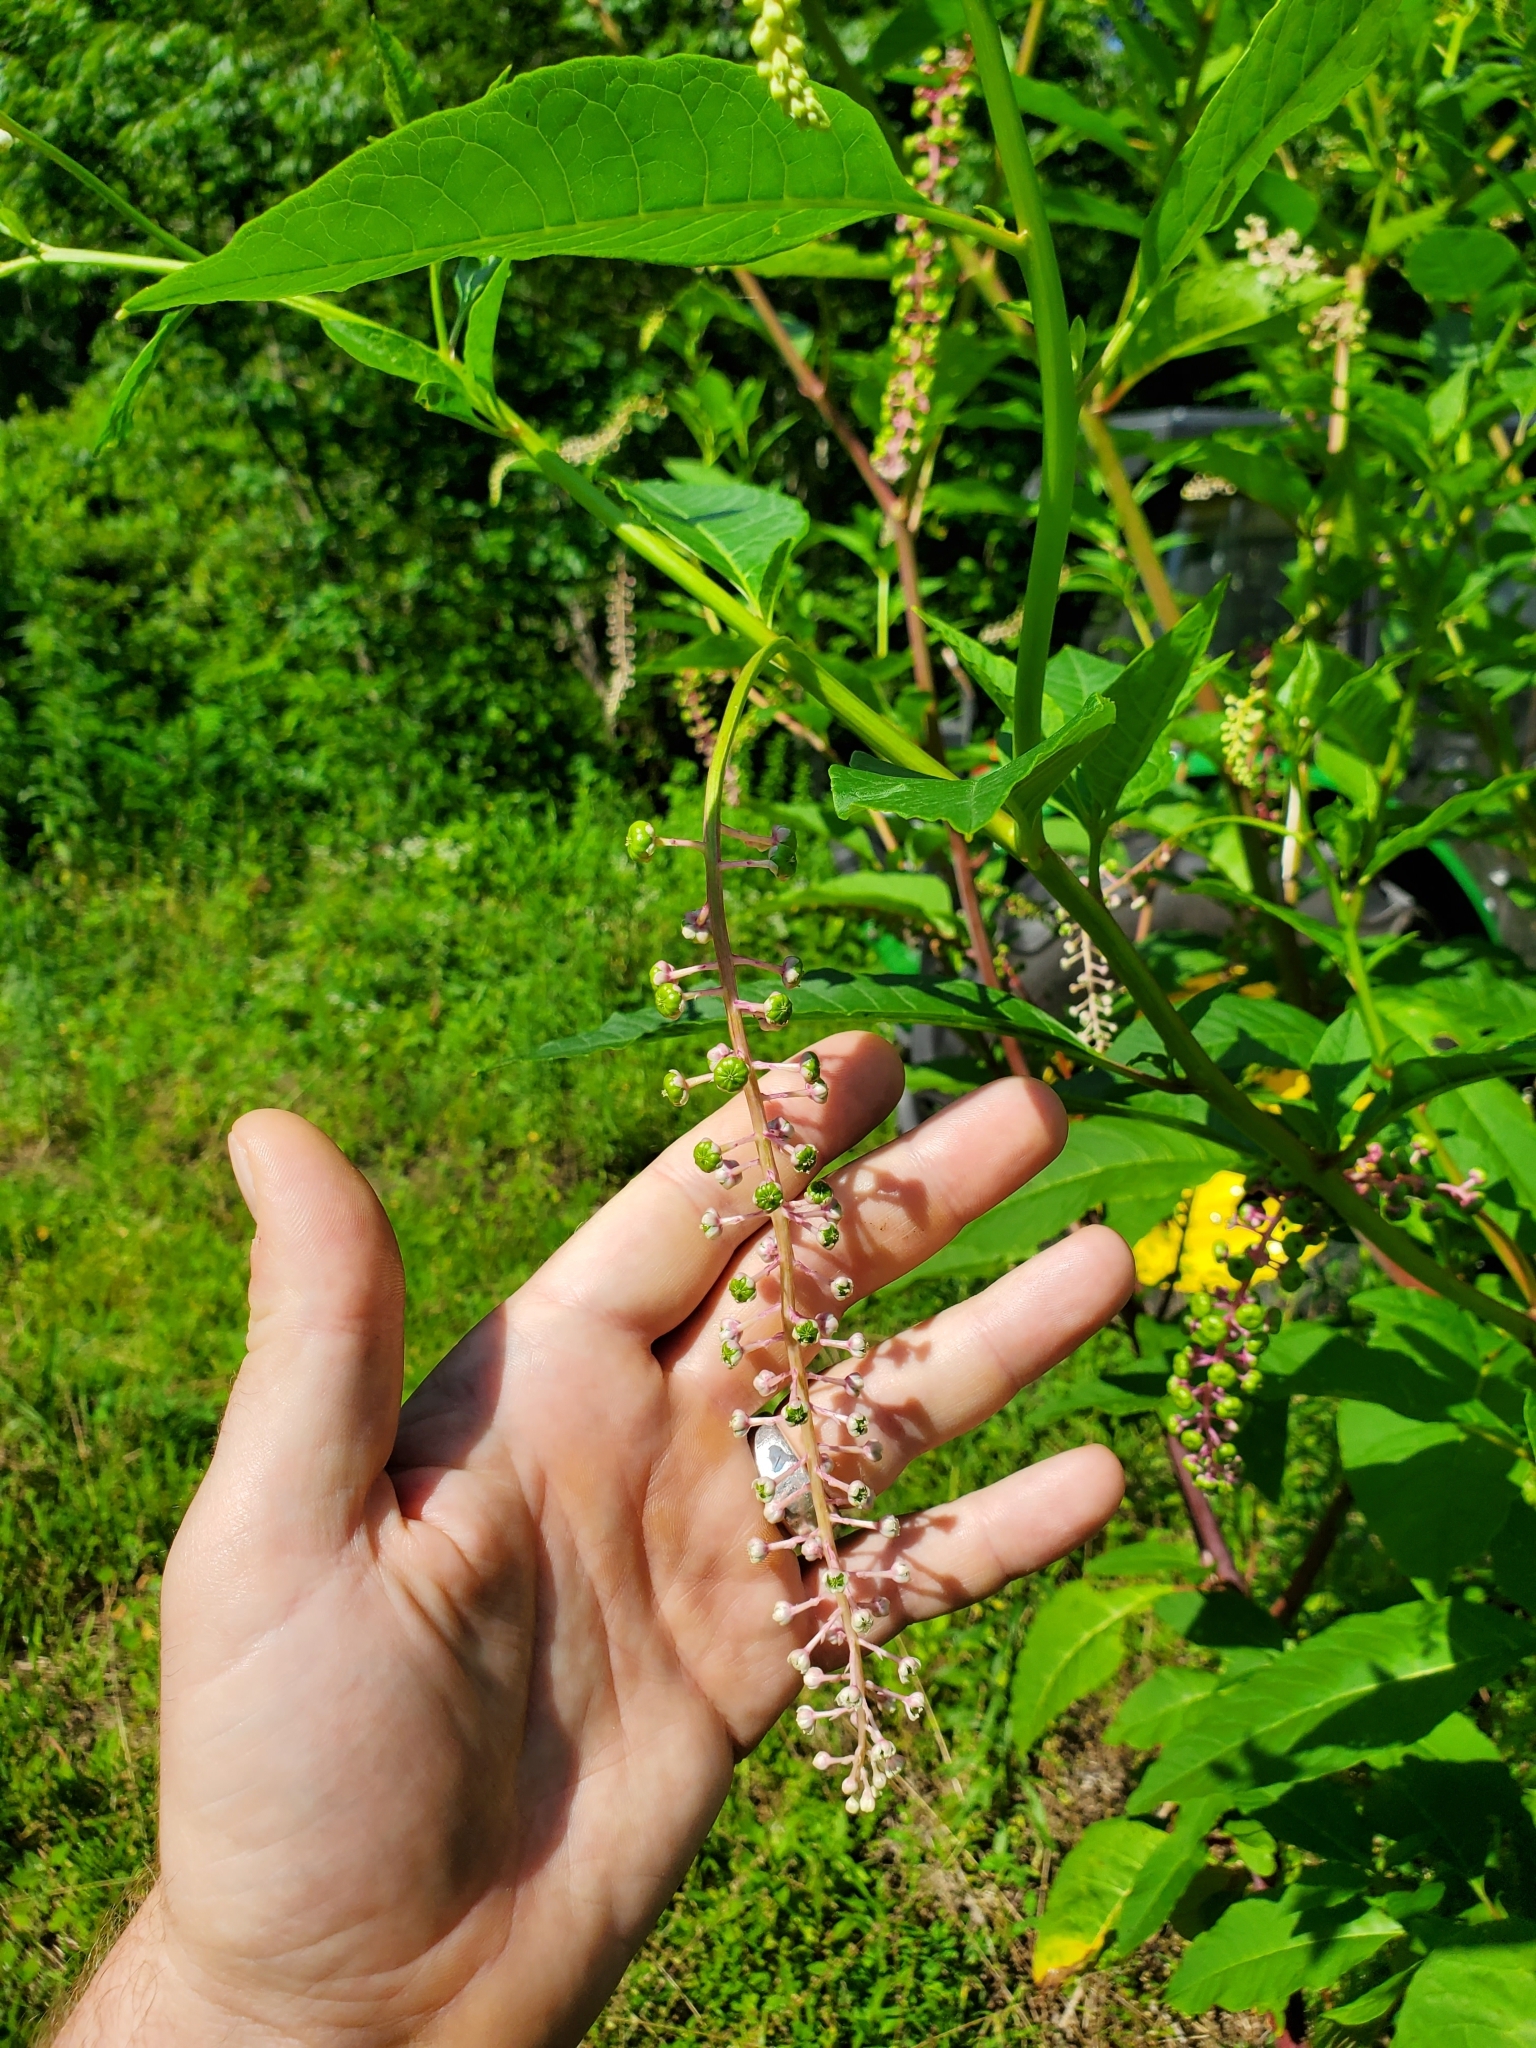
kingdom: Plantae
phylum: Tracheophyta
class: Magnoliopsida
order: Caryophyllales
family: Phytolaccaceae
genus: Phytolacca
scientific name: Phytolacca americana
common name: American pokeweed
